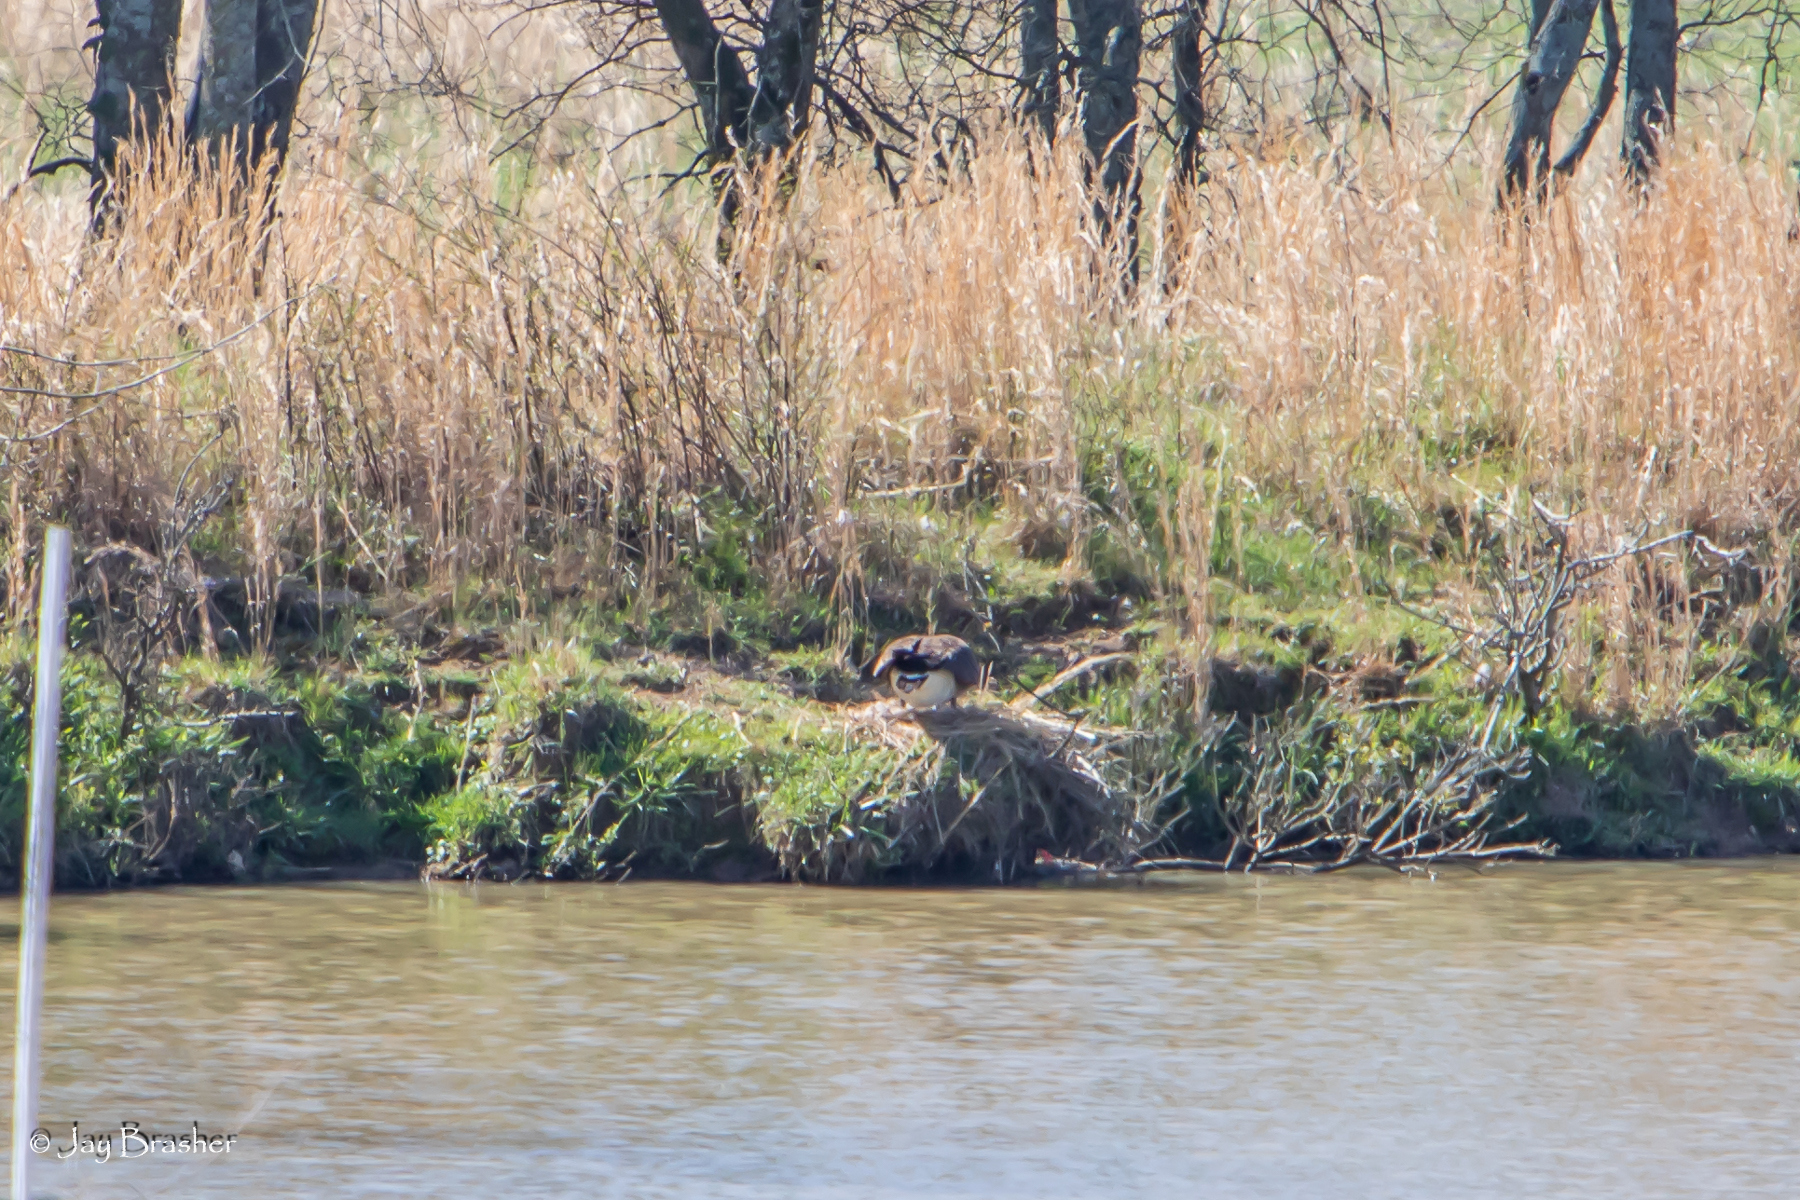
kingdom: Animalia
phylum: Chordata
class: Aves
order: Anseriformes
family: Anatidae
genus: Branta
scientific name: Branta canadensis
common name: Canada goose
